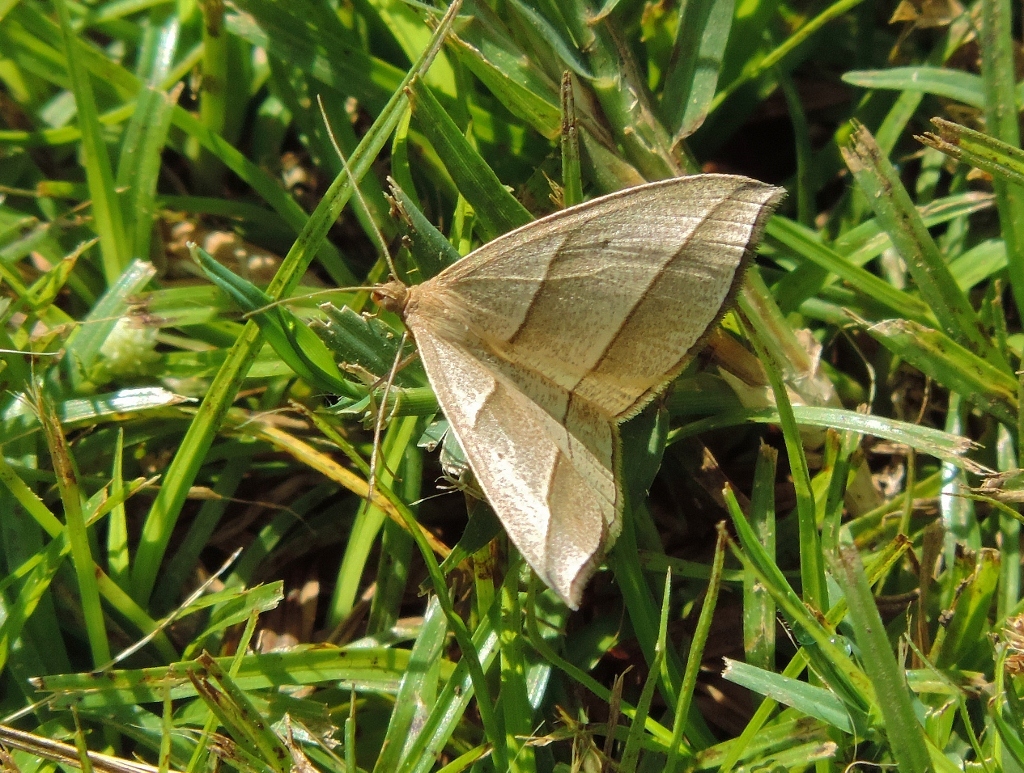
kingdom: Animalia
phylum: Arthropoda
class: Insecta
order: Lepidoptera
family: Geometridae
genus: Afrophyla
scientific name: Afrophyla vethi
